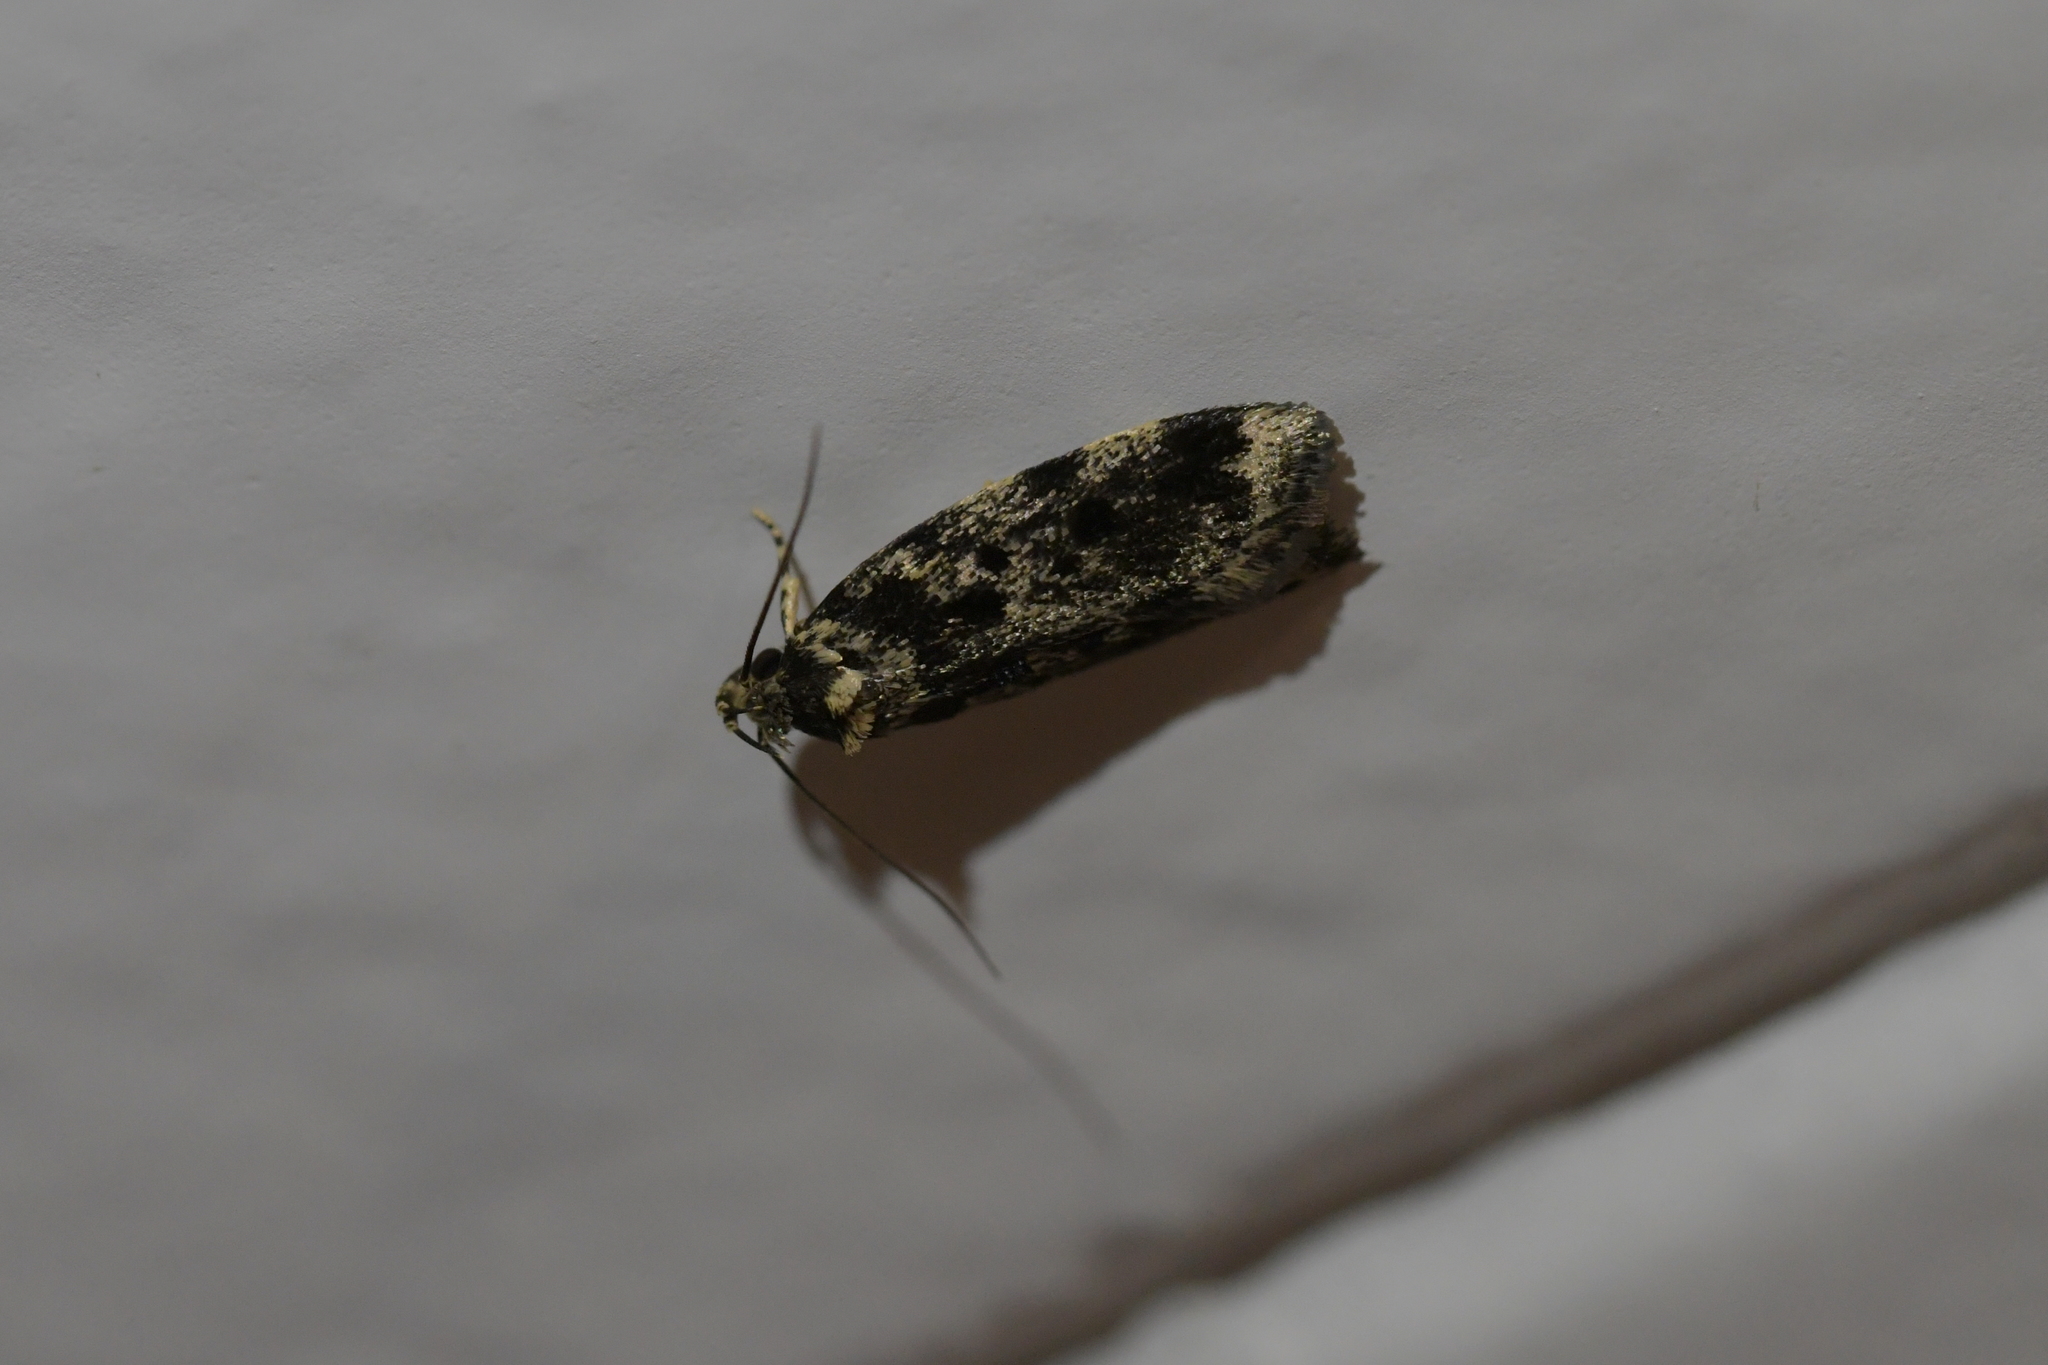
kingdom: Animalia
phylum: Arthropoda
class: Insecta
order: Lepidoptera
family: Oecophoridae
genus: Barea
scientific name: Barea codrella
